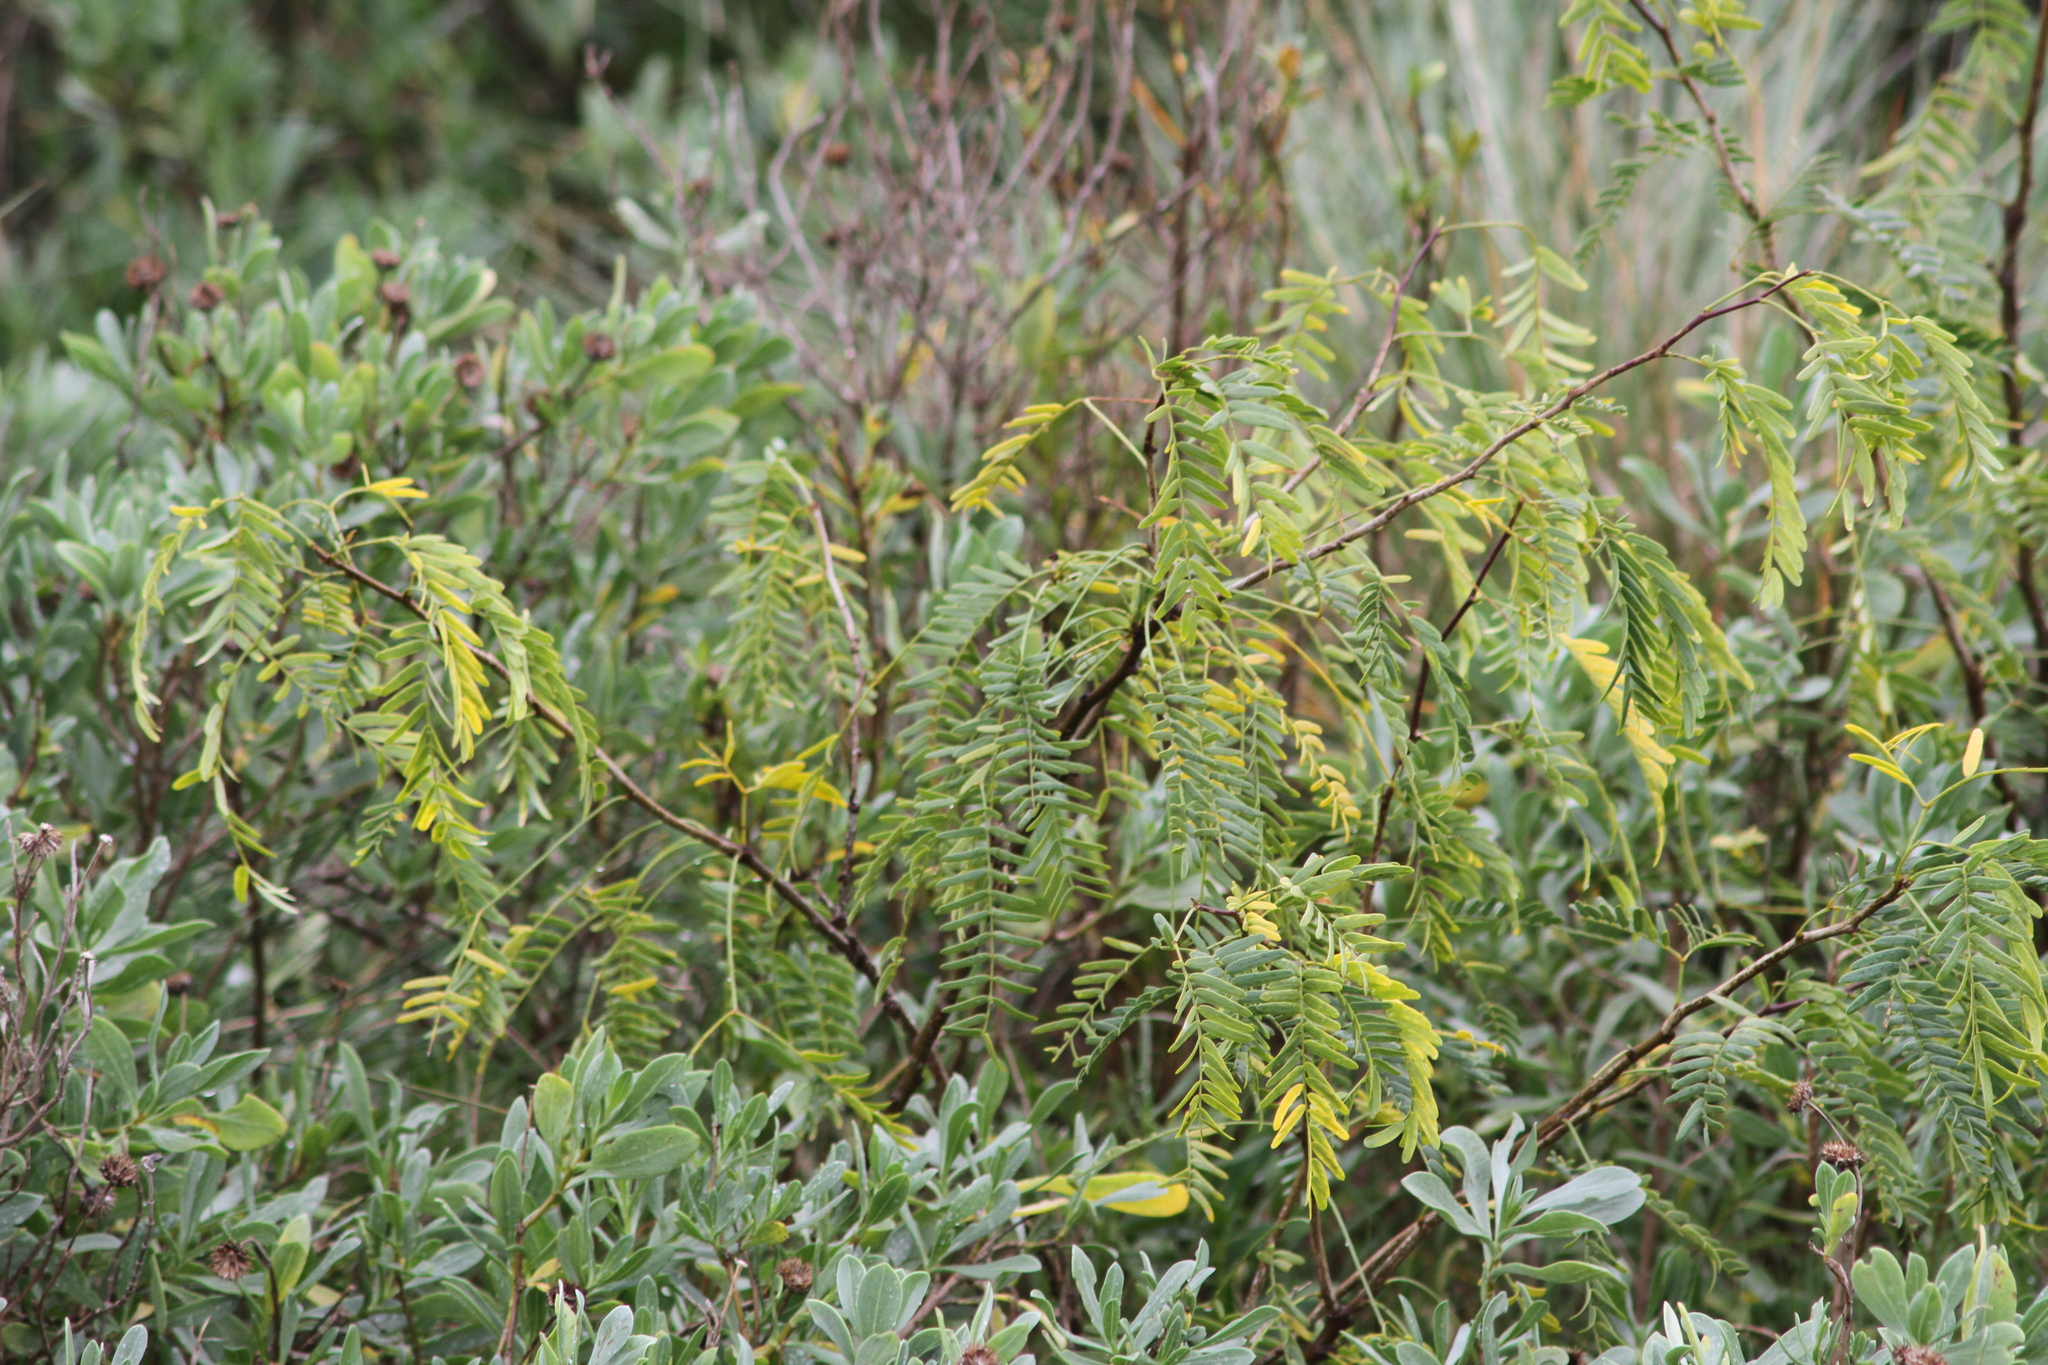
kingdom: Plantae
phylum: Tracheophyta
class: Magnoliopsida
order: Fabales
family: Fabaceae
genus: Prosopis
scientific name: Prosopis glandulosa
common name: Honey mesquite
